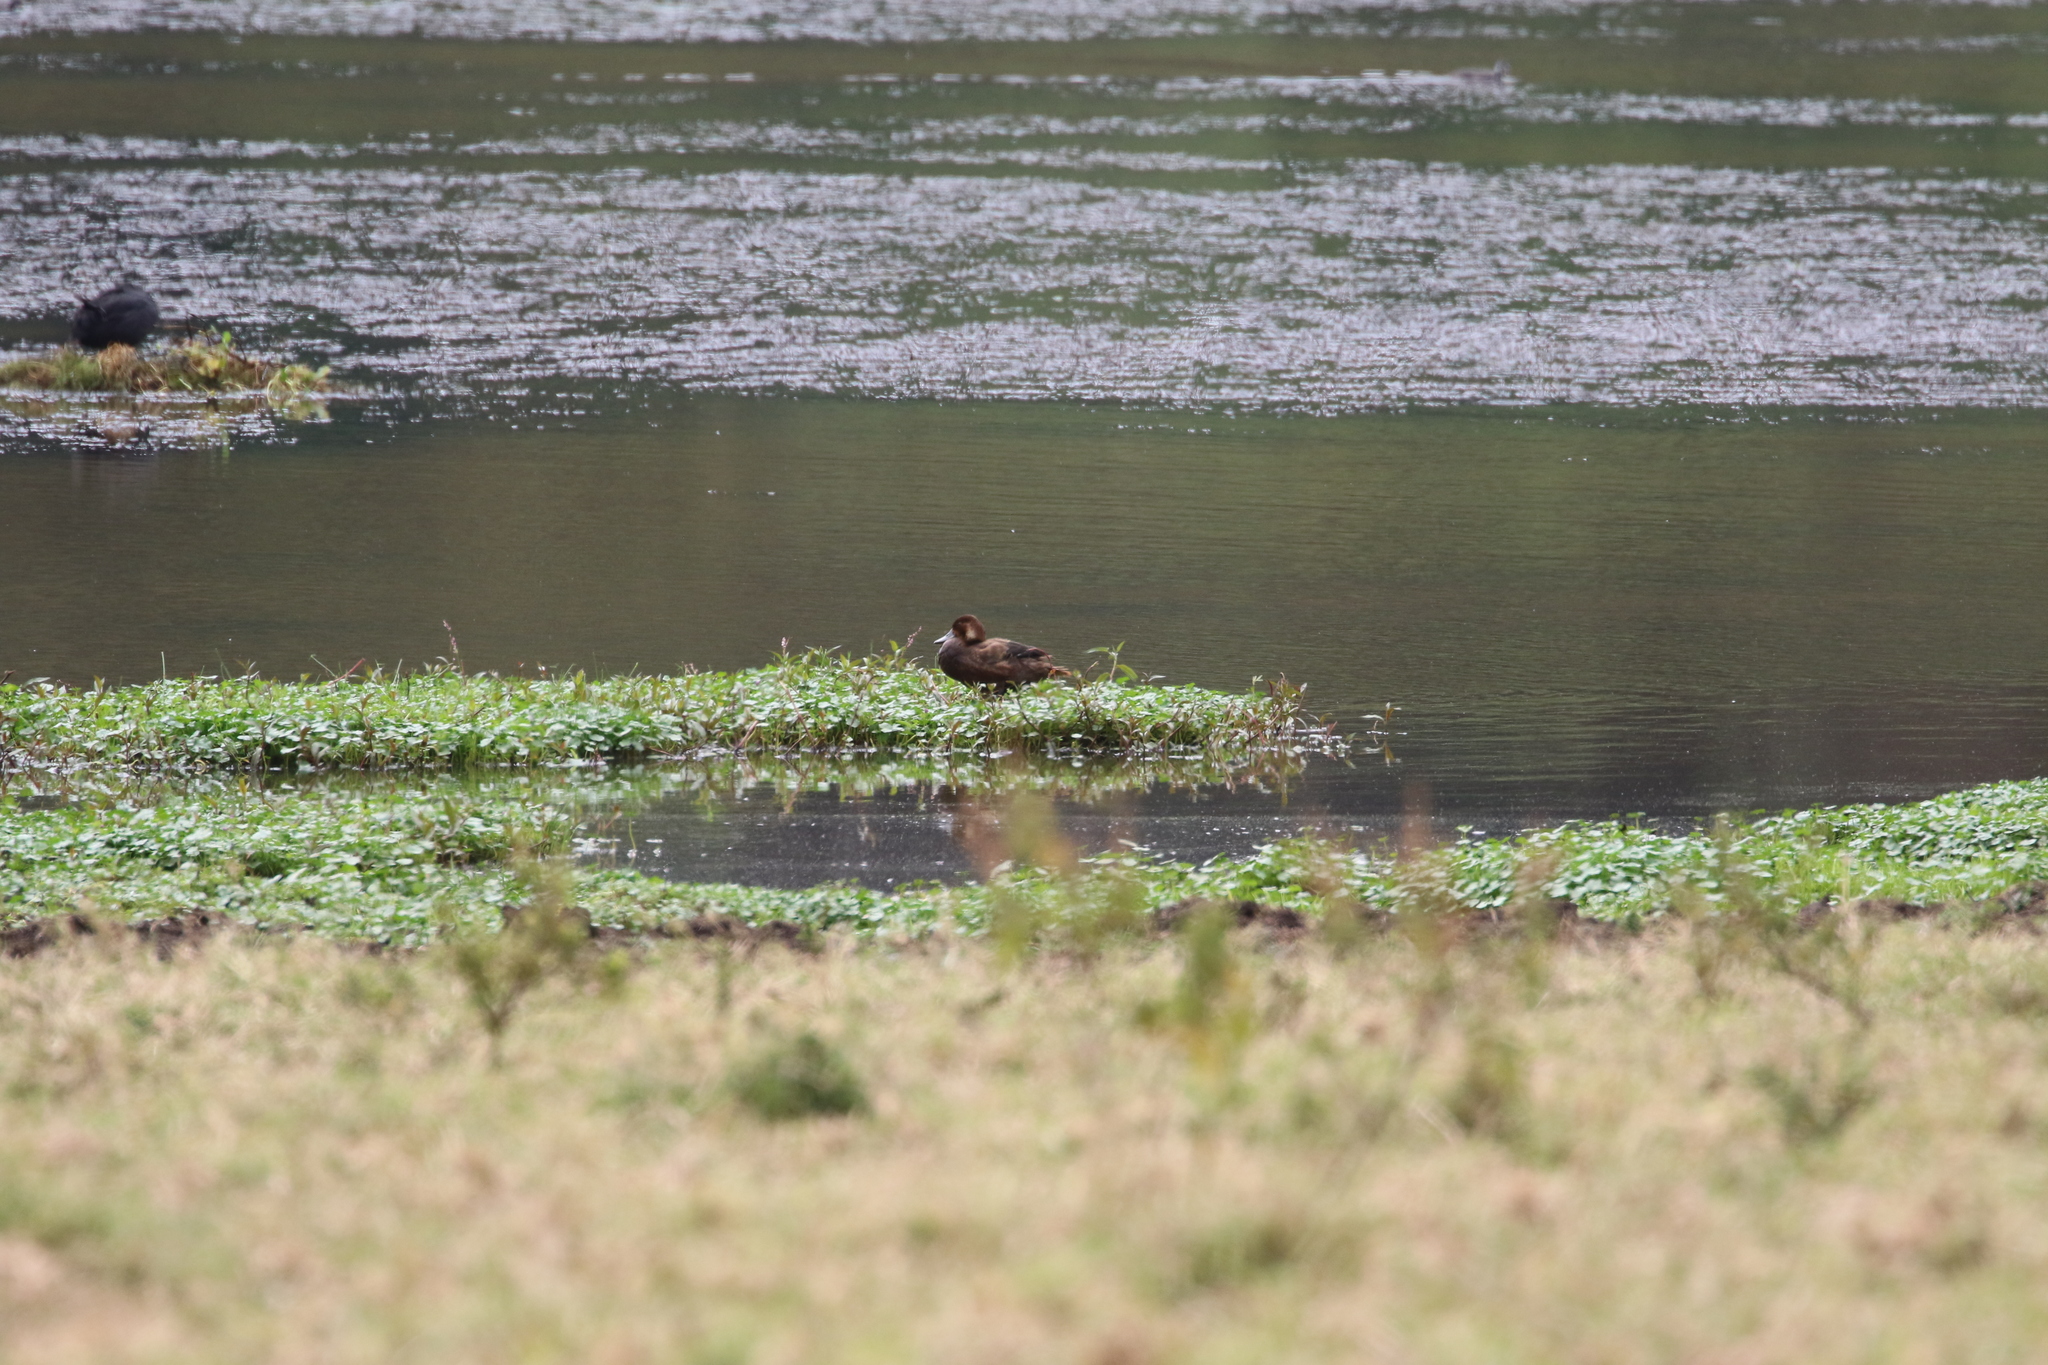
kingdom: Animalia
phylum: Chordata
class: Aves
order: Anseriformes
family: Anatidae
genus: Netta
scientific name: Netta erythrophthalma
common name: Southern pochard
